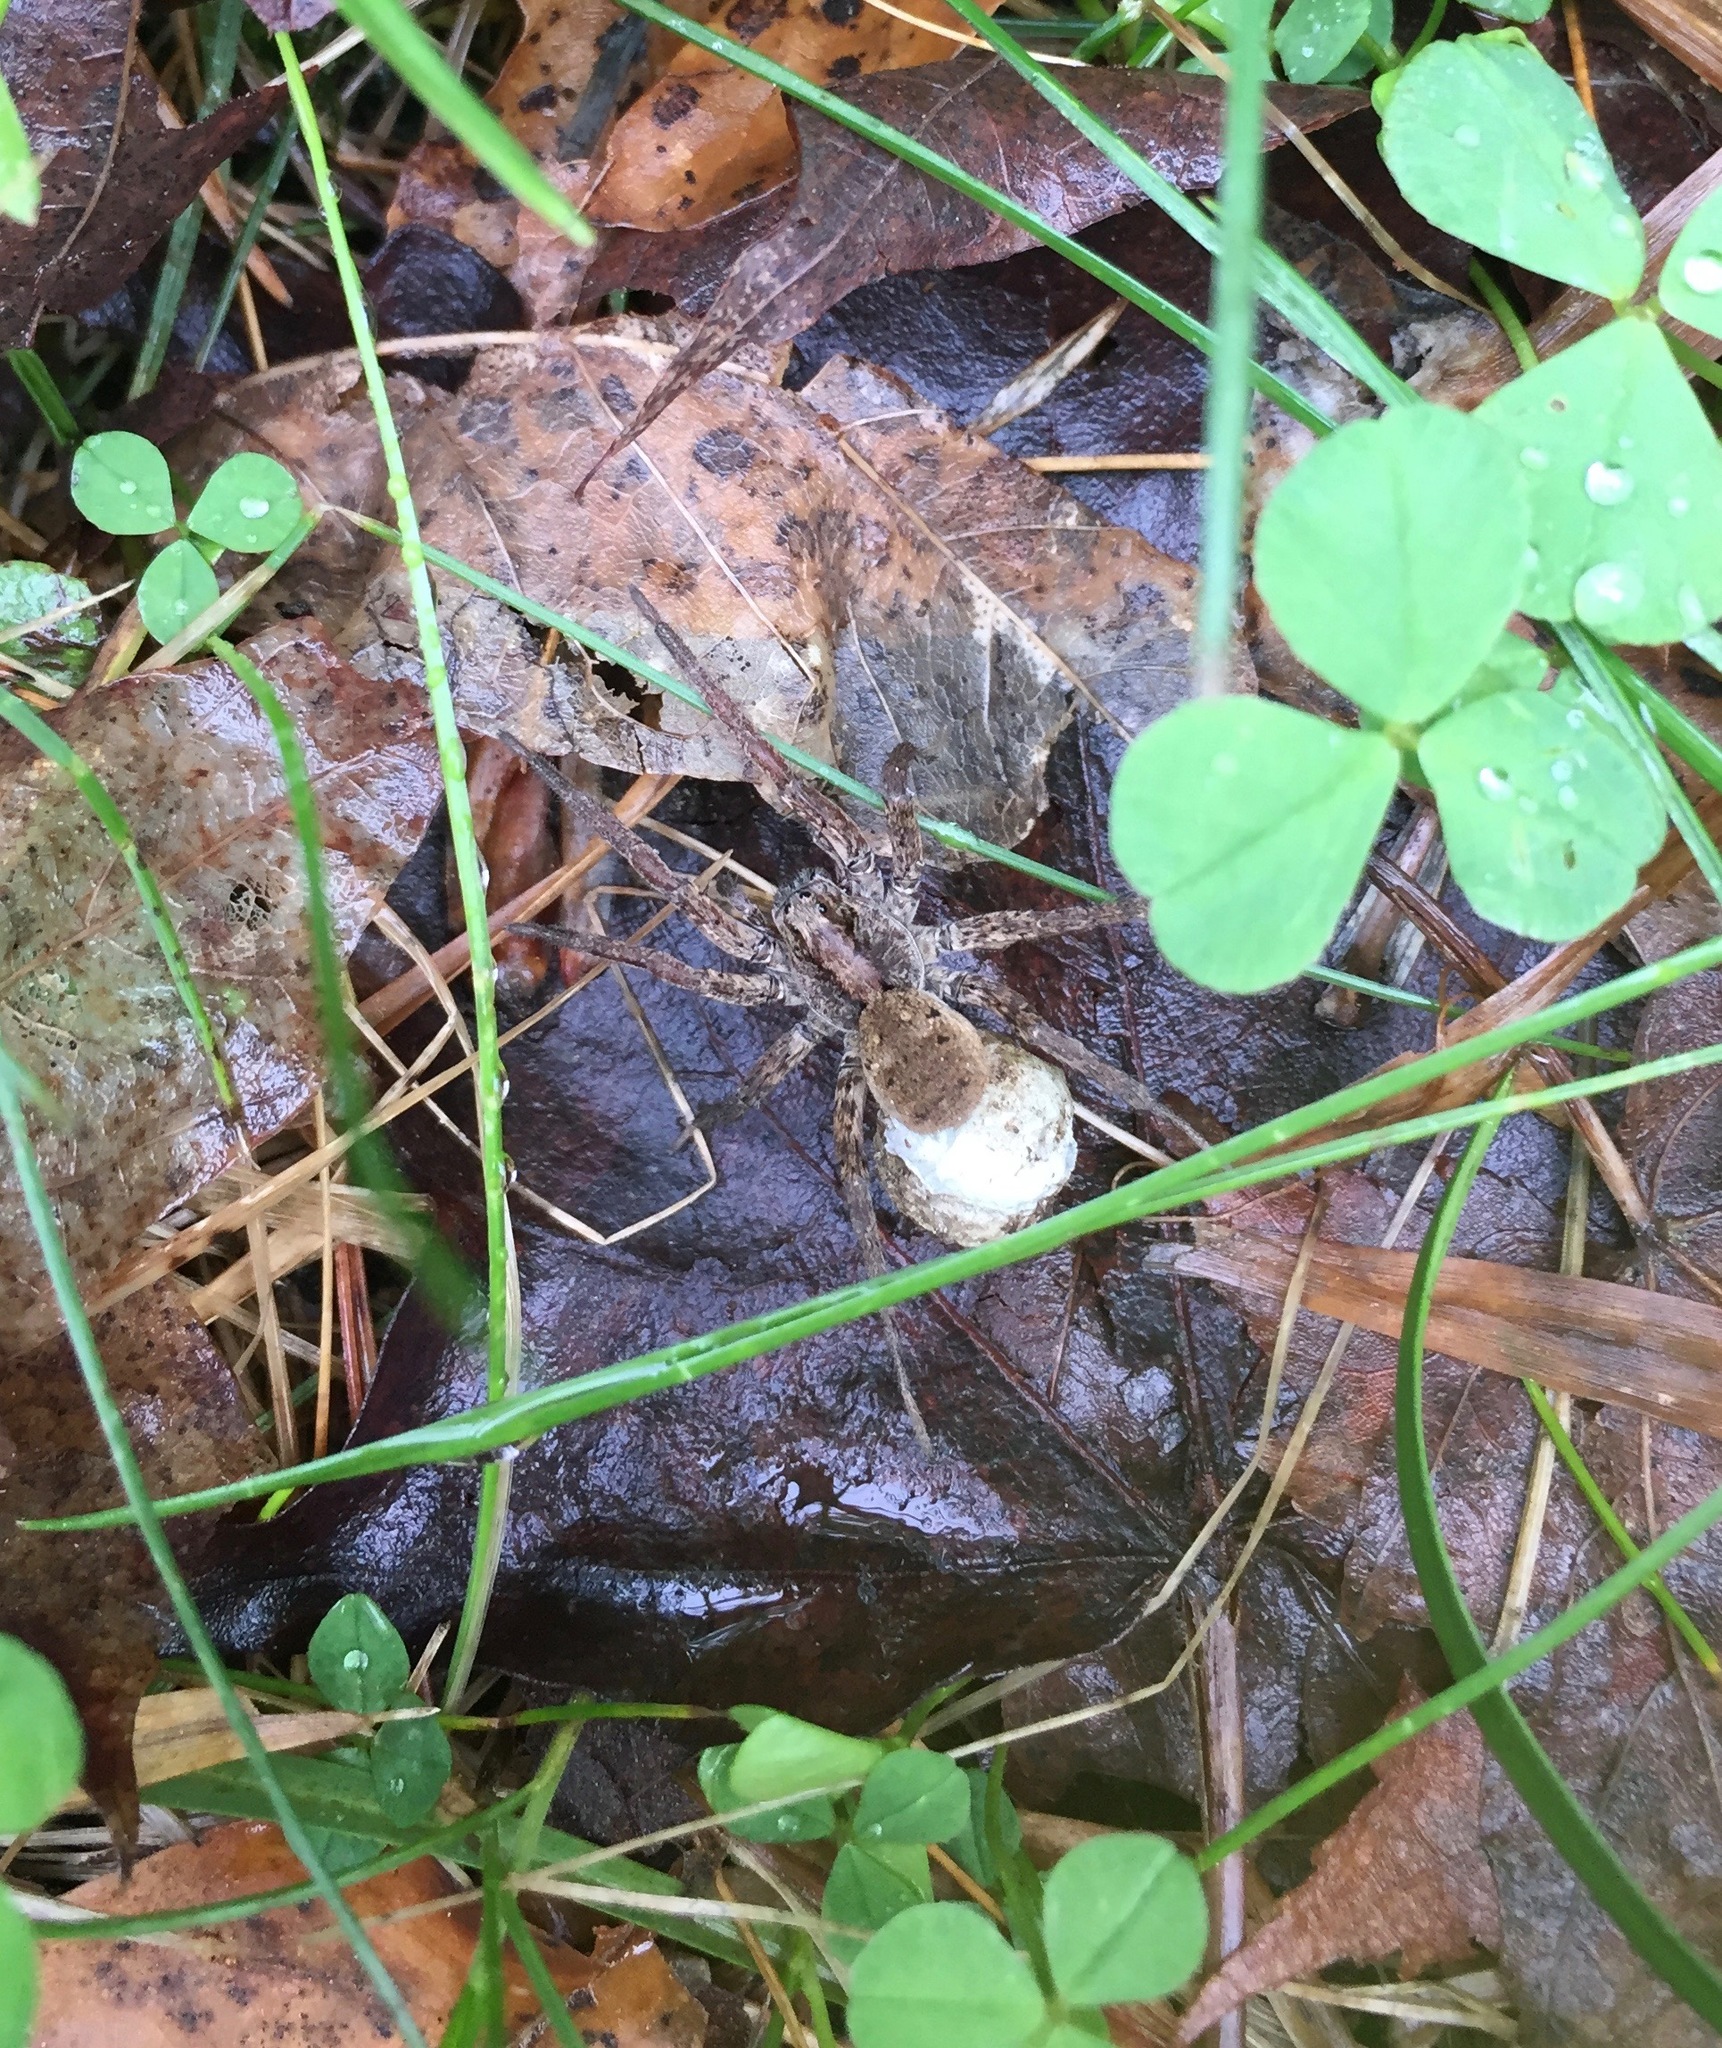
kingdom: Animalia
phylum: Arthropoda
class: Arachnida
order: Araneae
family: Lycosidae
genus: Gladicosa
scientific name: Gladicosa gulosa
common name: Drumming sword wolf spider
